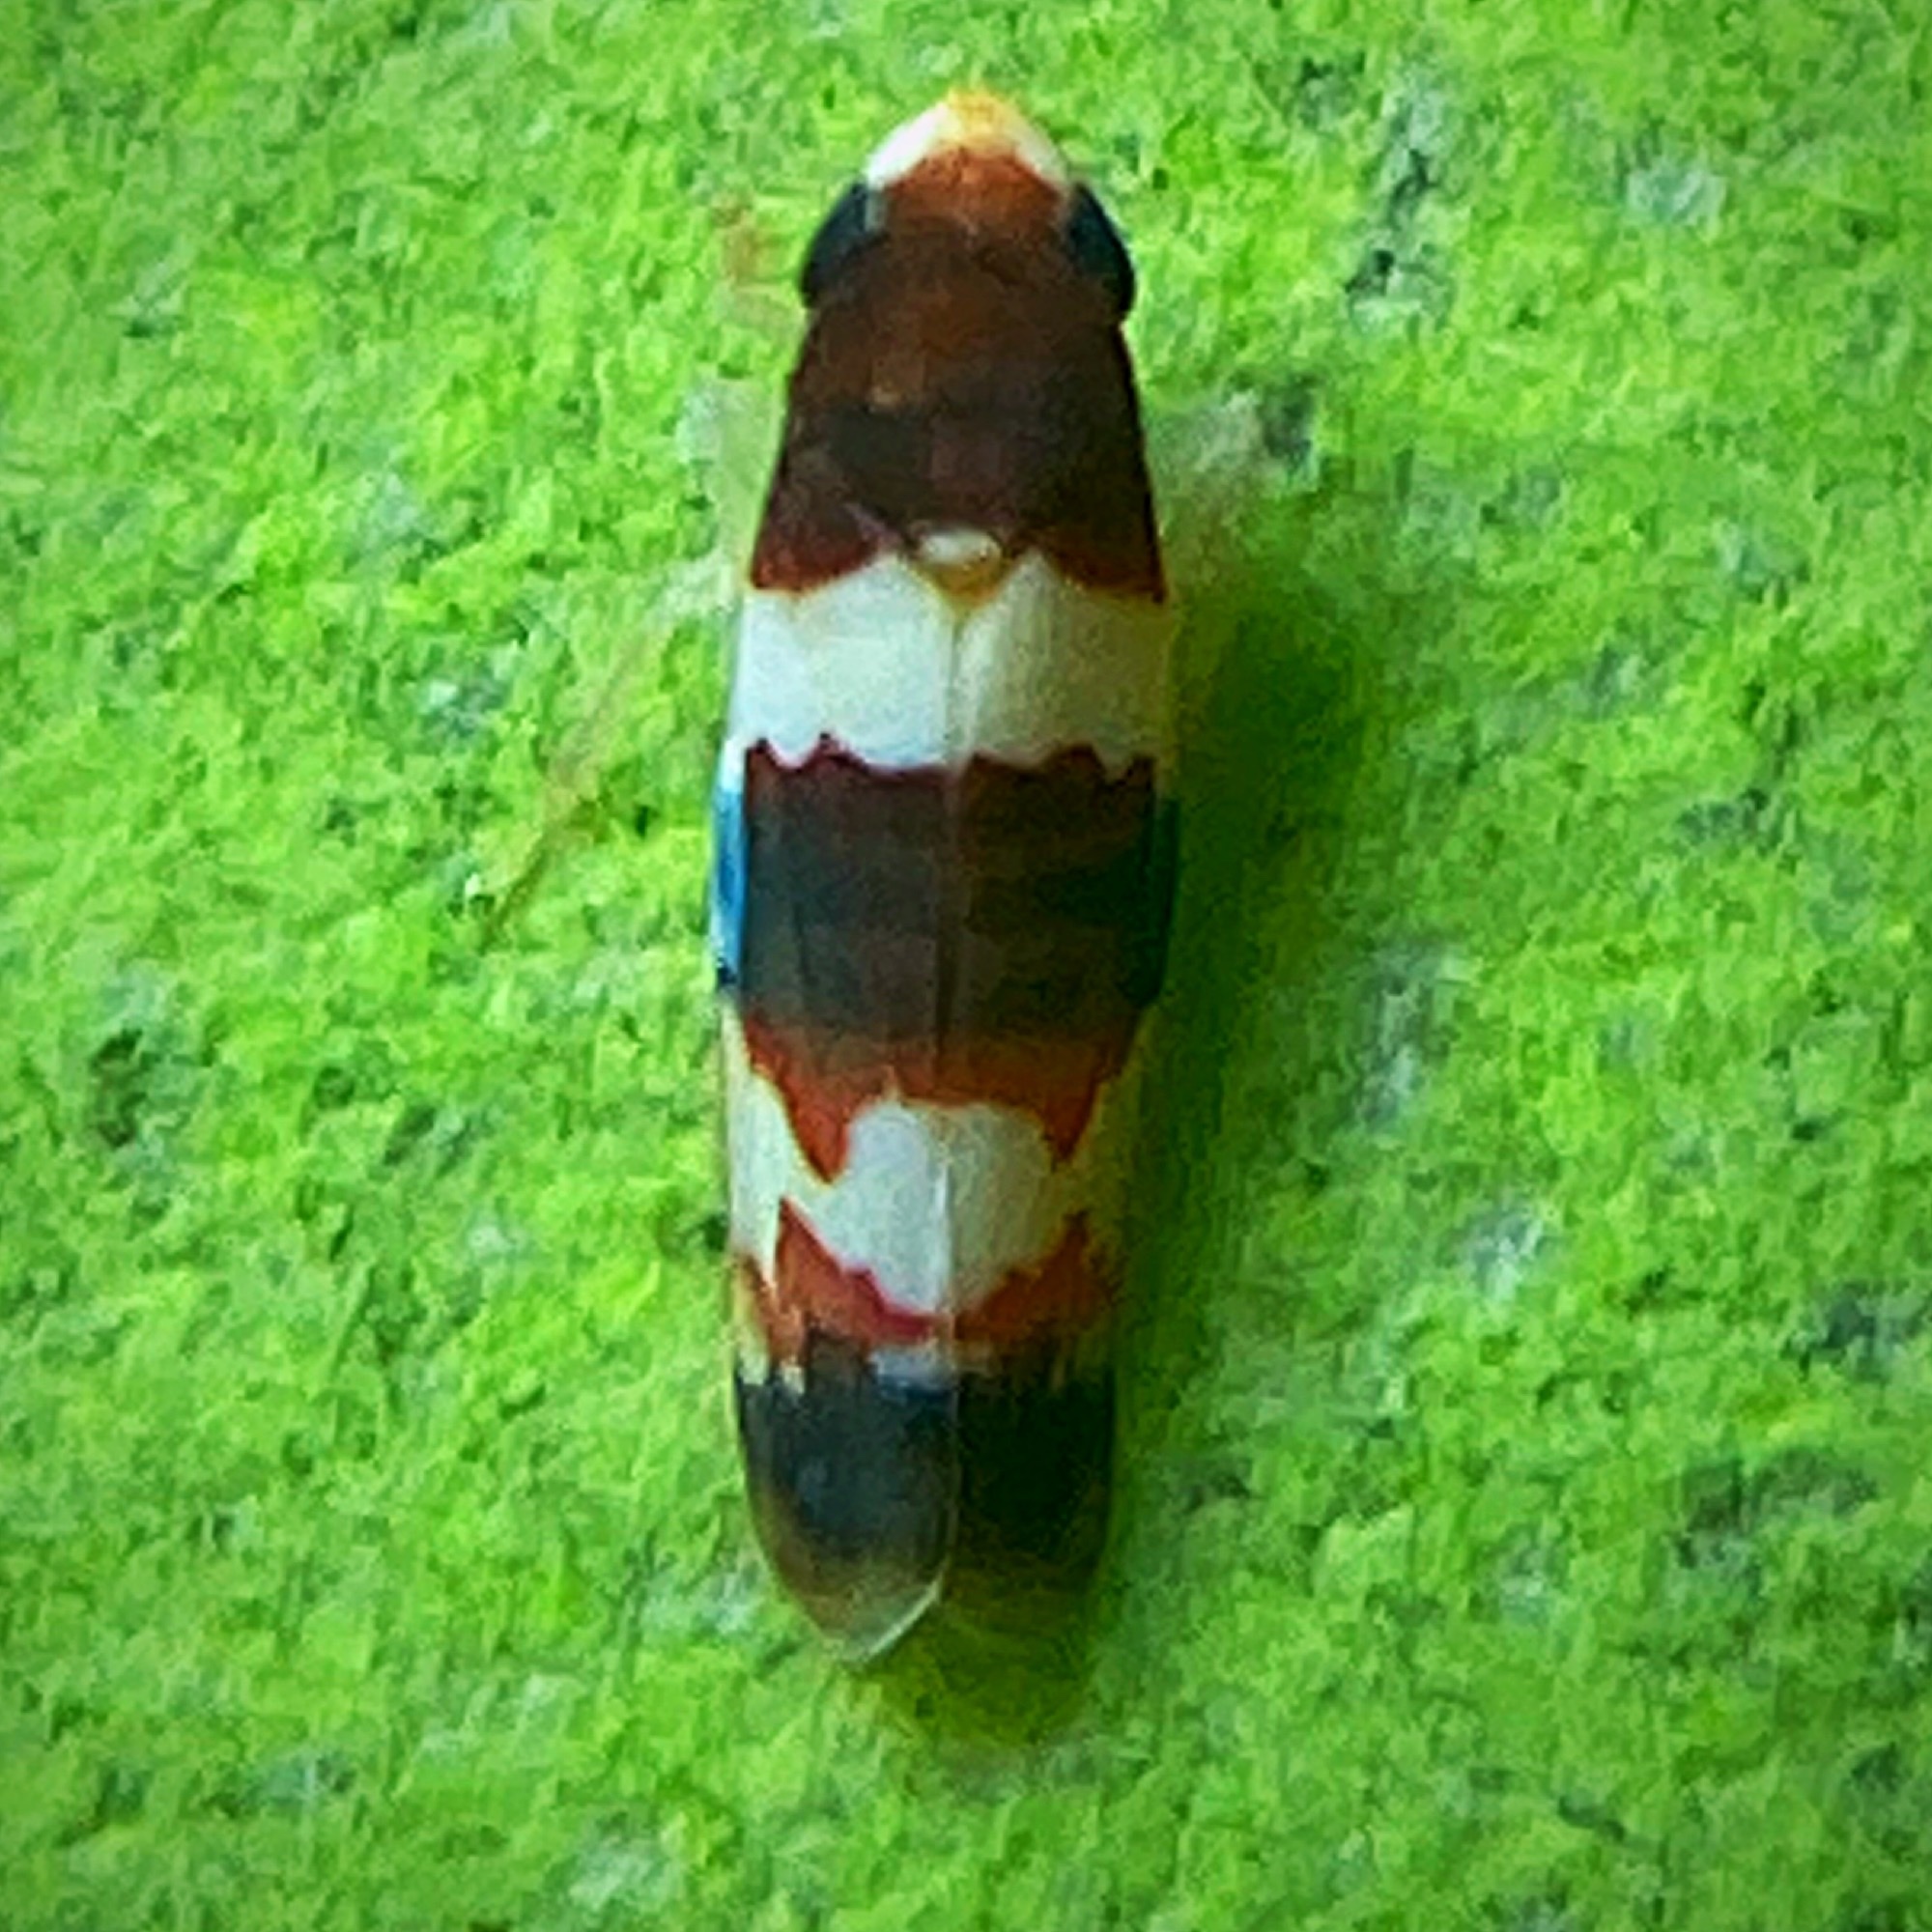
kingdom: Animalia
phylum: Arthropoda
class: Insecta
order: Hemiptera
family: Cicadellidae
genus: Erythroneura
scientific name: Erythroneura bistrata
